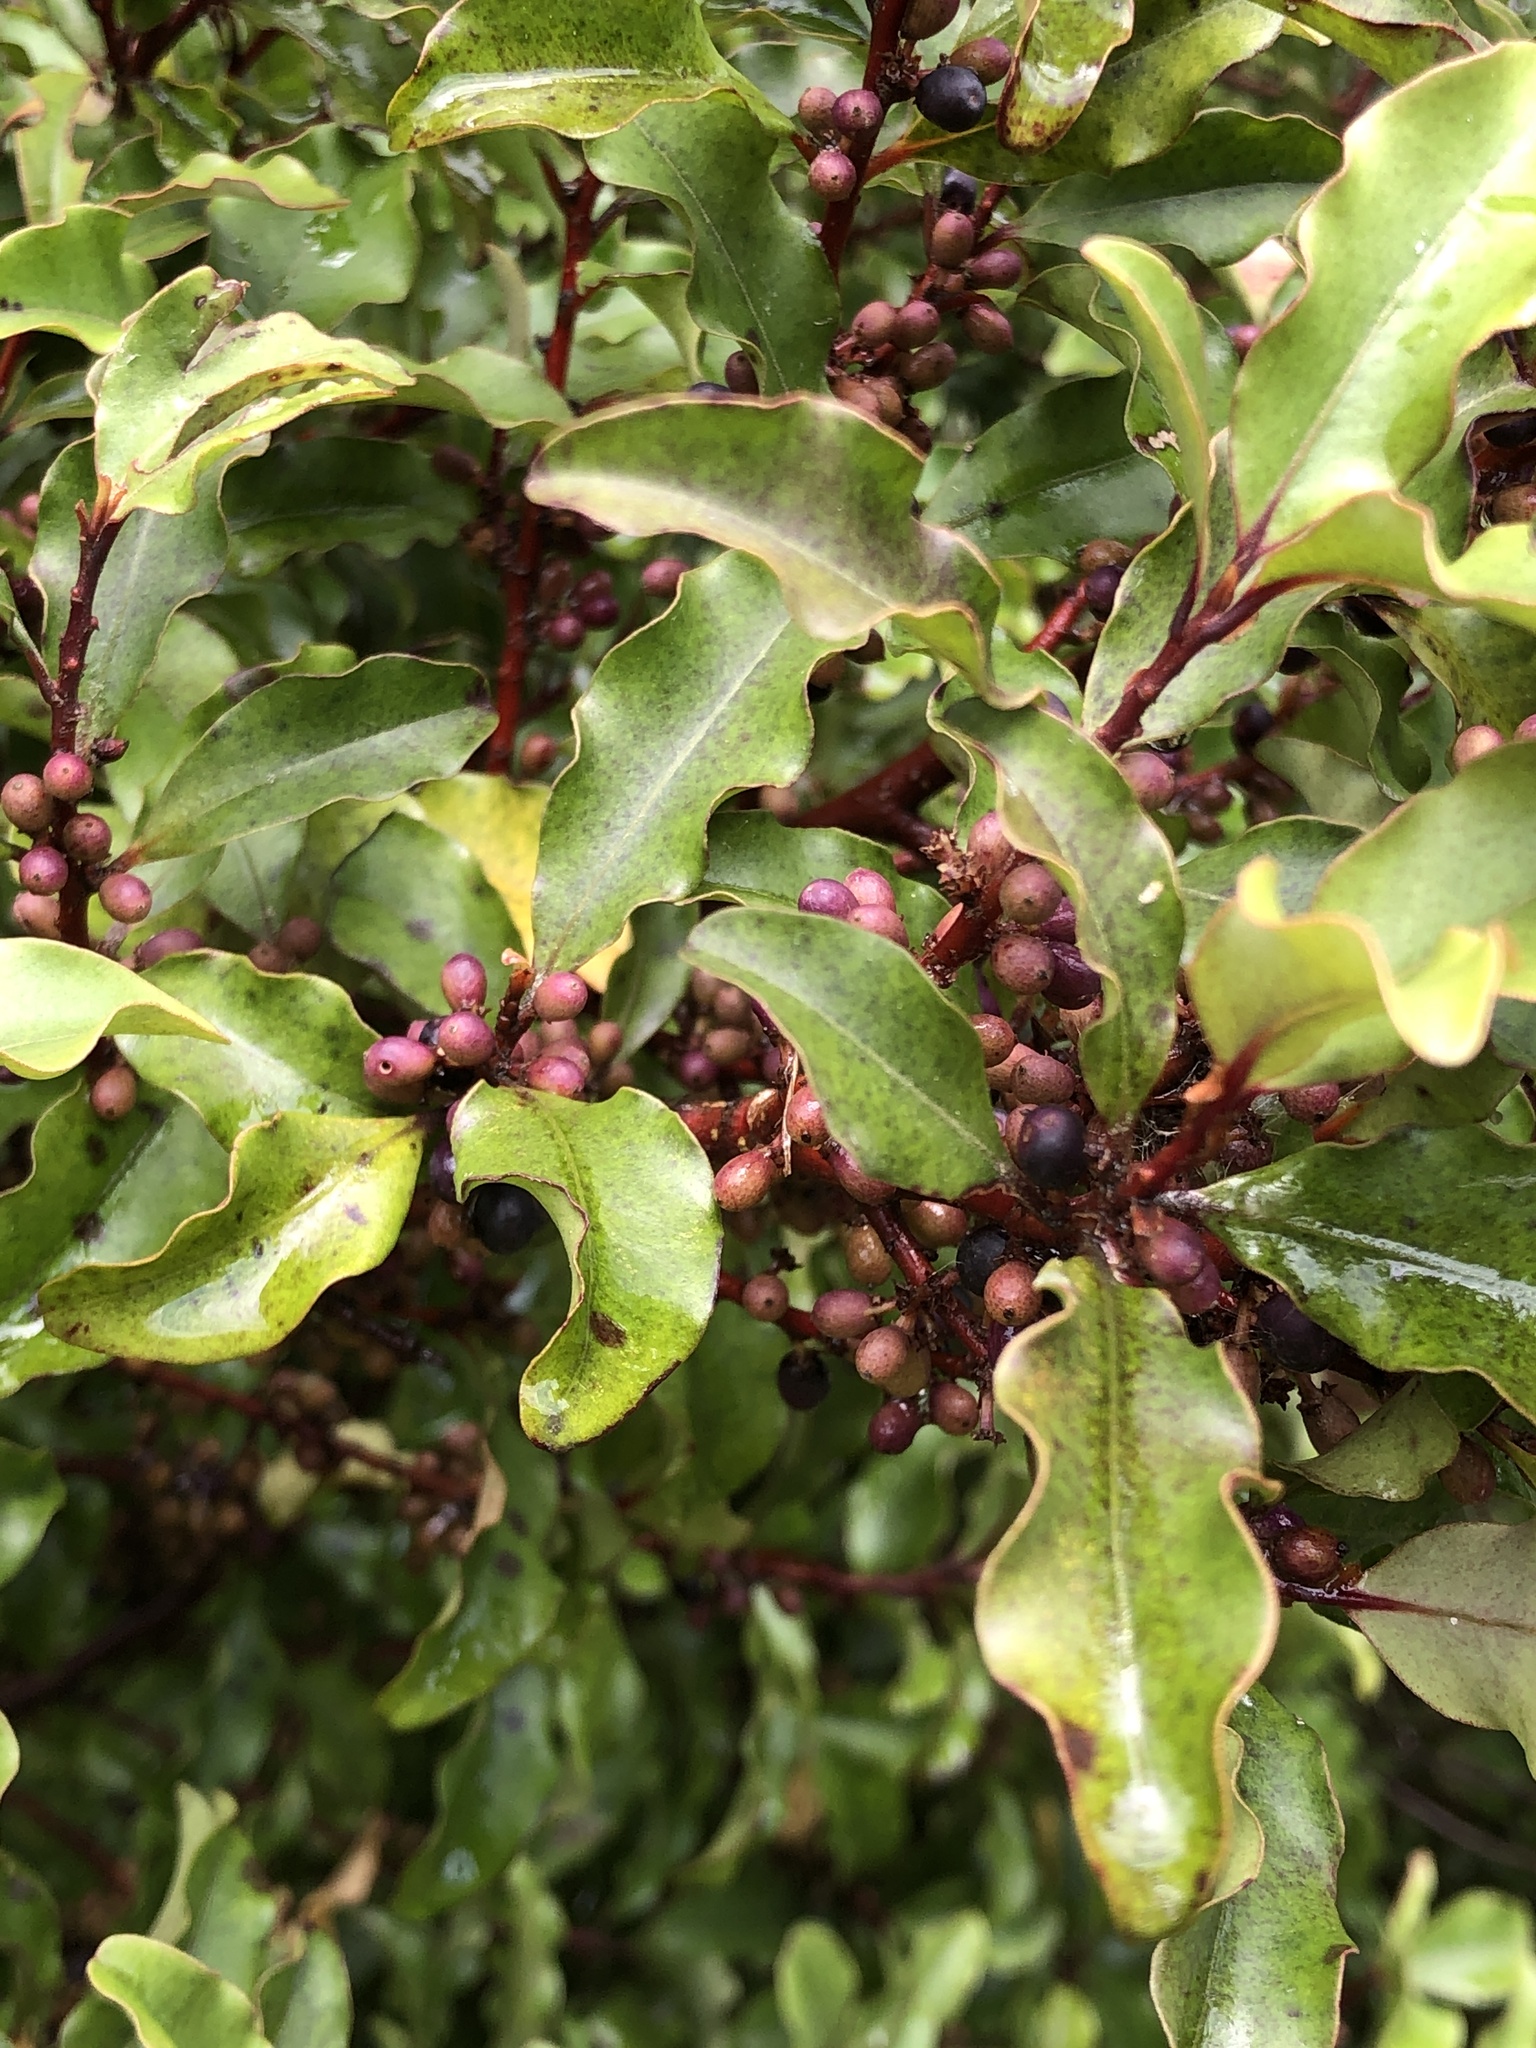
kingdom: Plantae
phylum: Tracheophyta
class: Magnoliopsida
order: Ericales
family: Primulaceae
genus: Myrsine
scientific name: Myrsine australis
